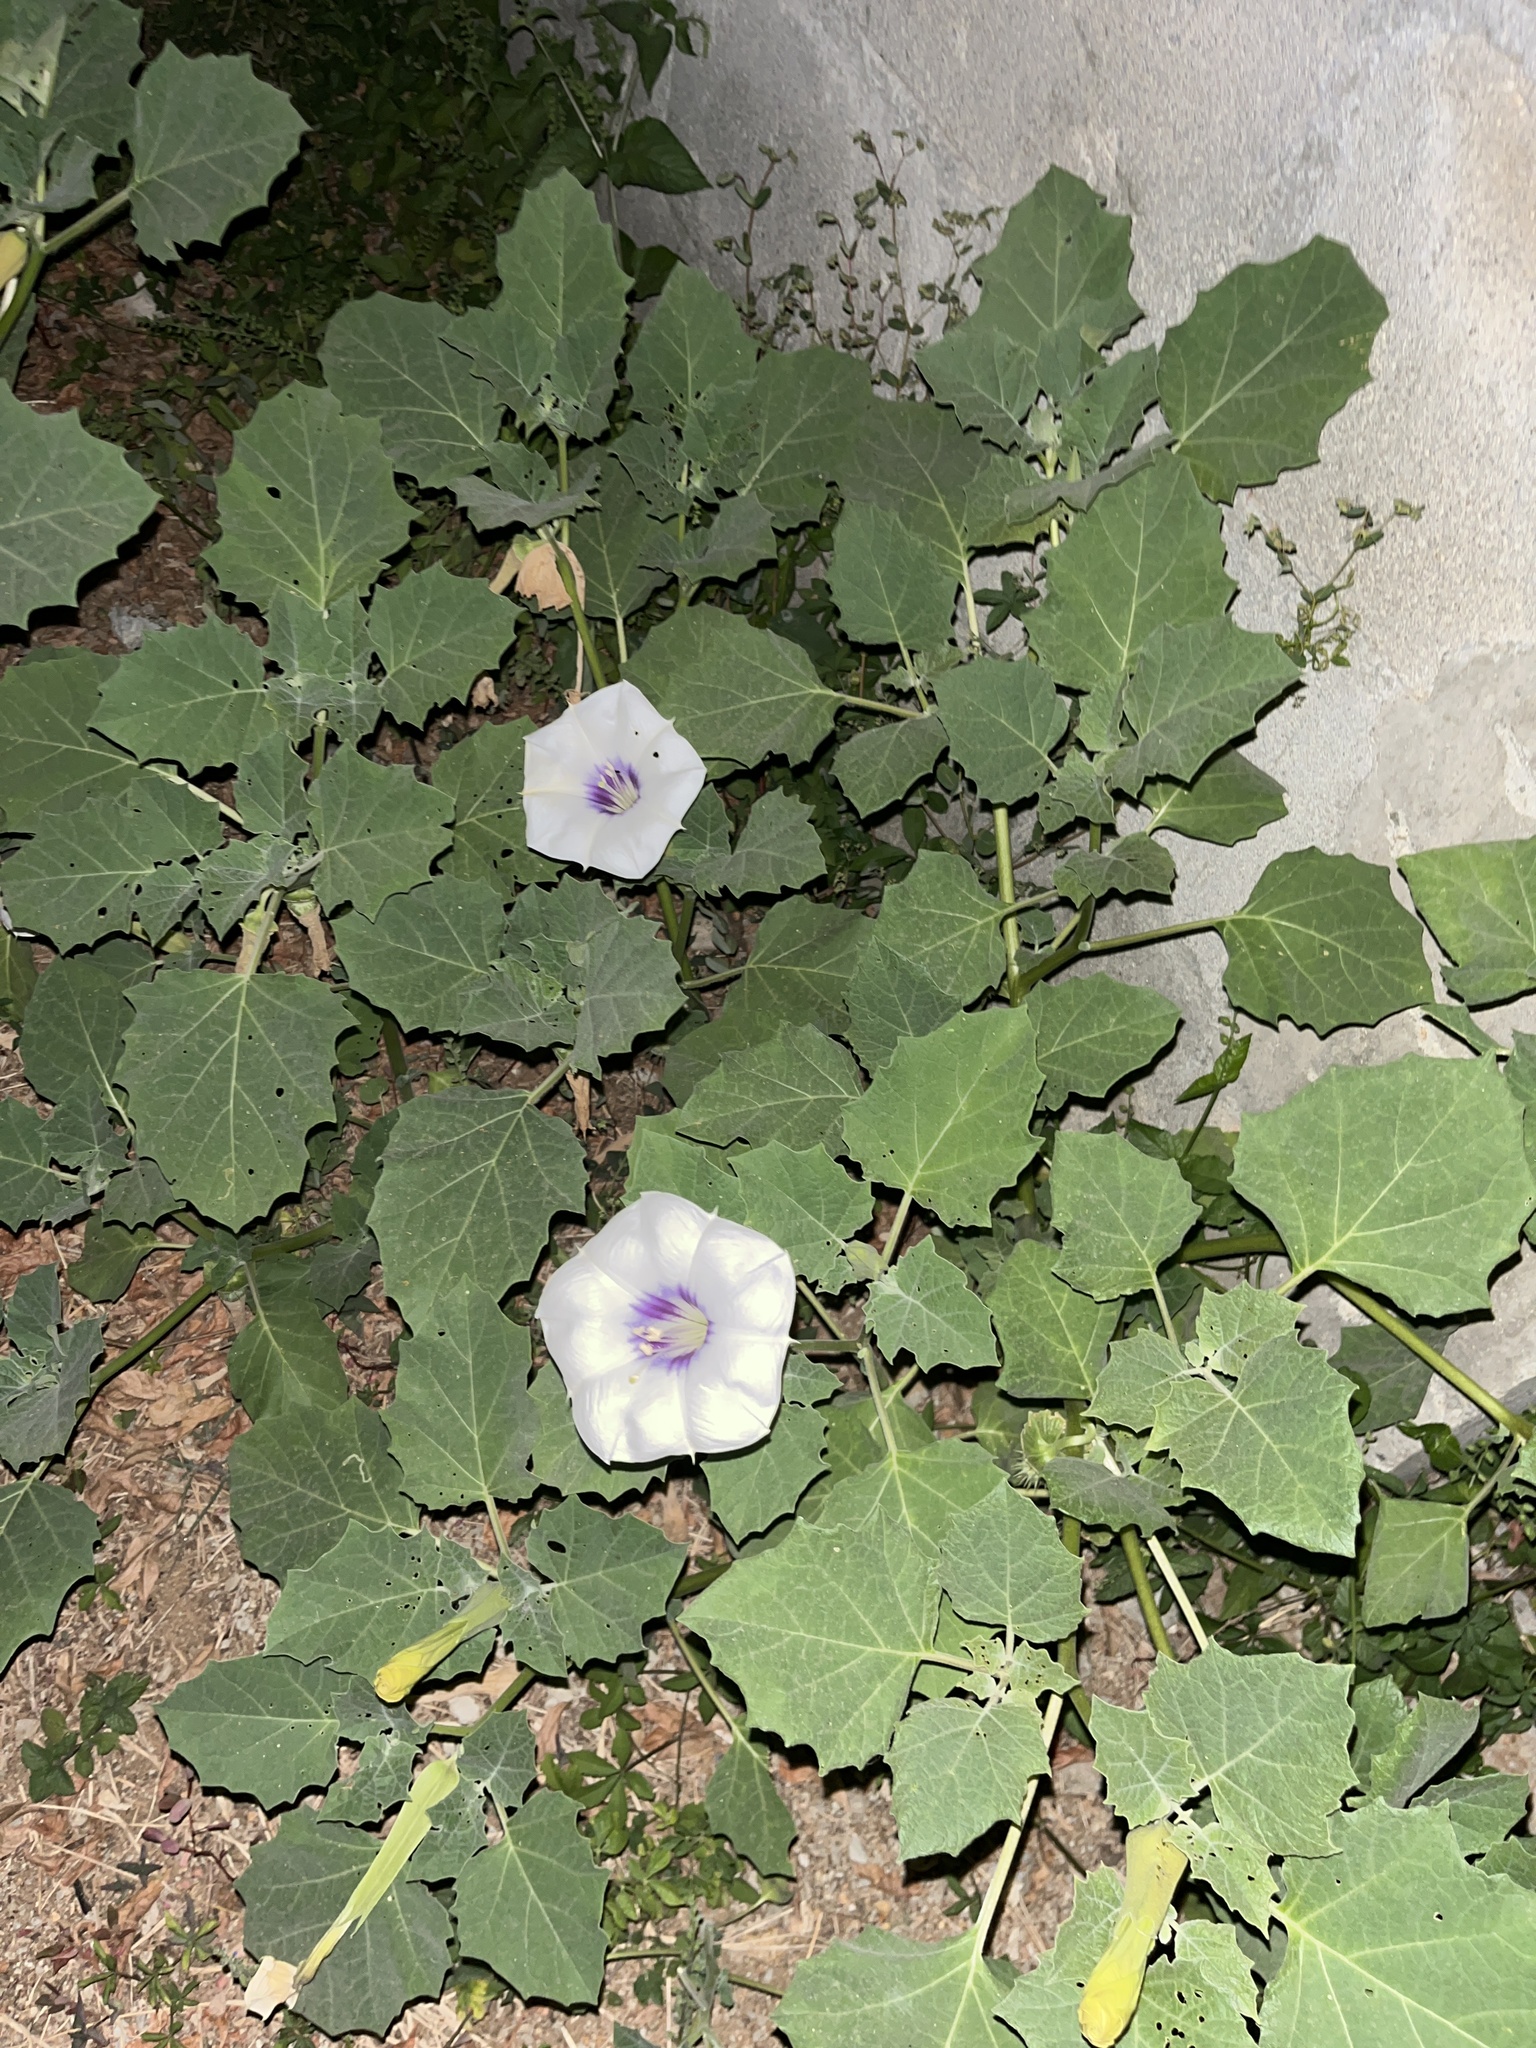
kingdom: Plantae
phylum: Tracheophyta
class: Magnoliopsida
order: Solanales
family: Solanaceae
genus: Datura
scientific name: Datura discolor
